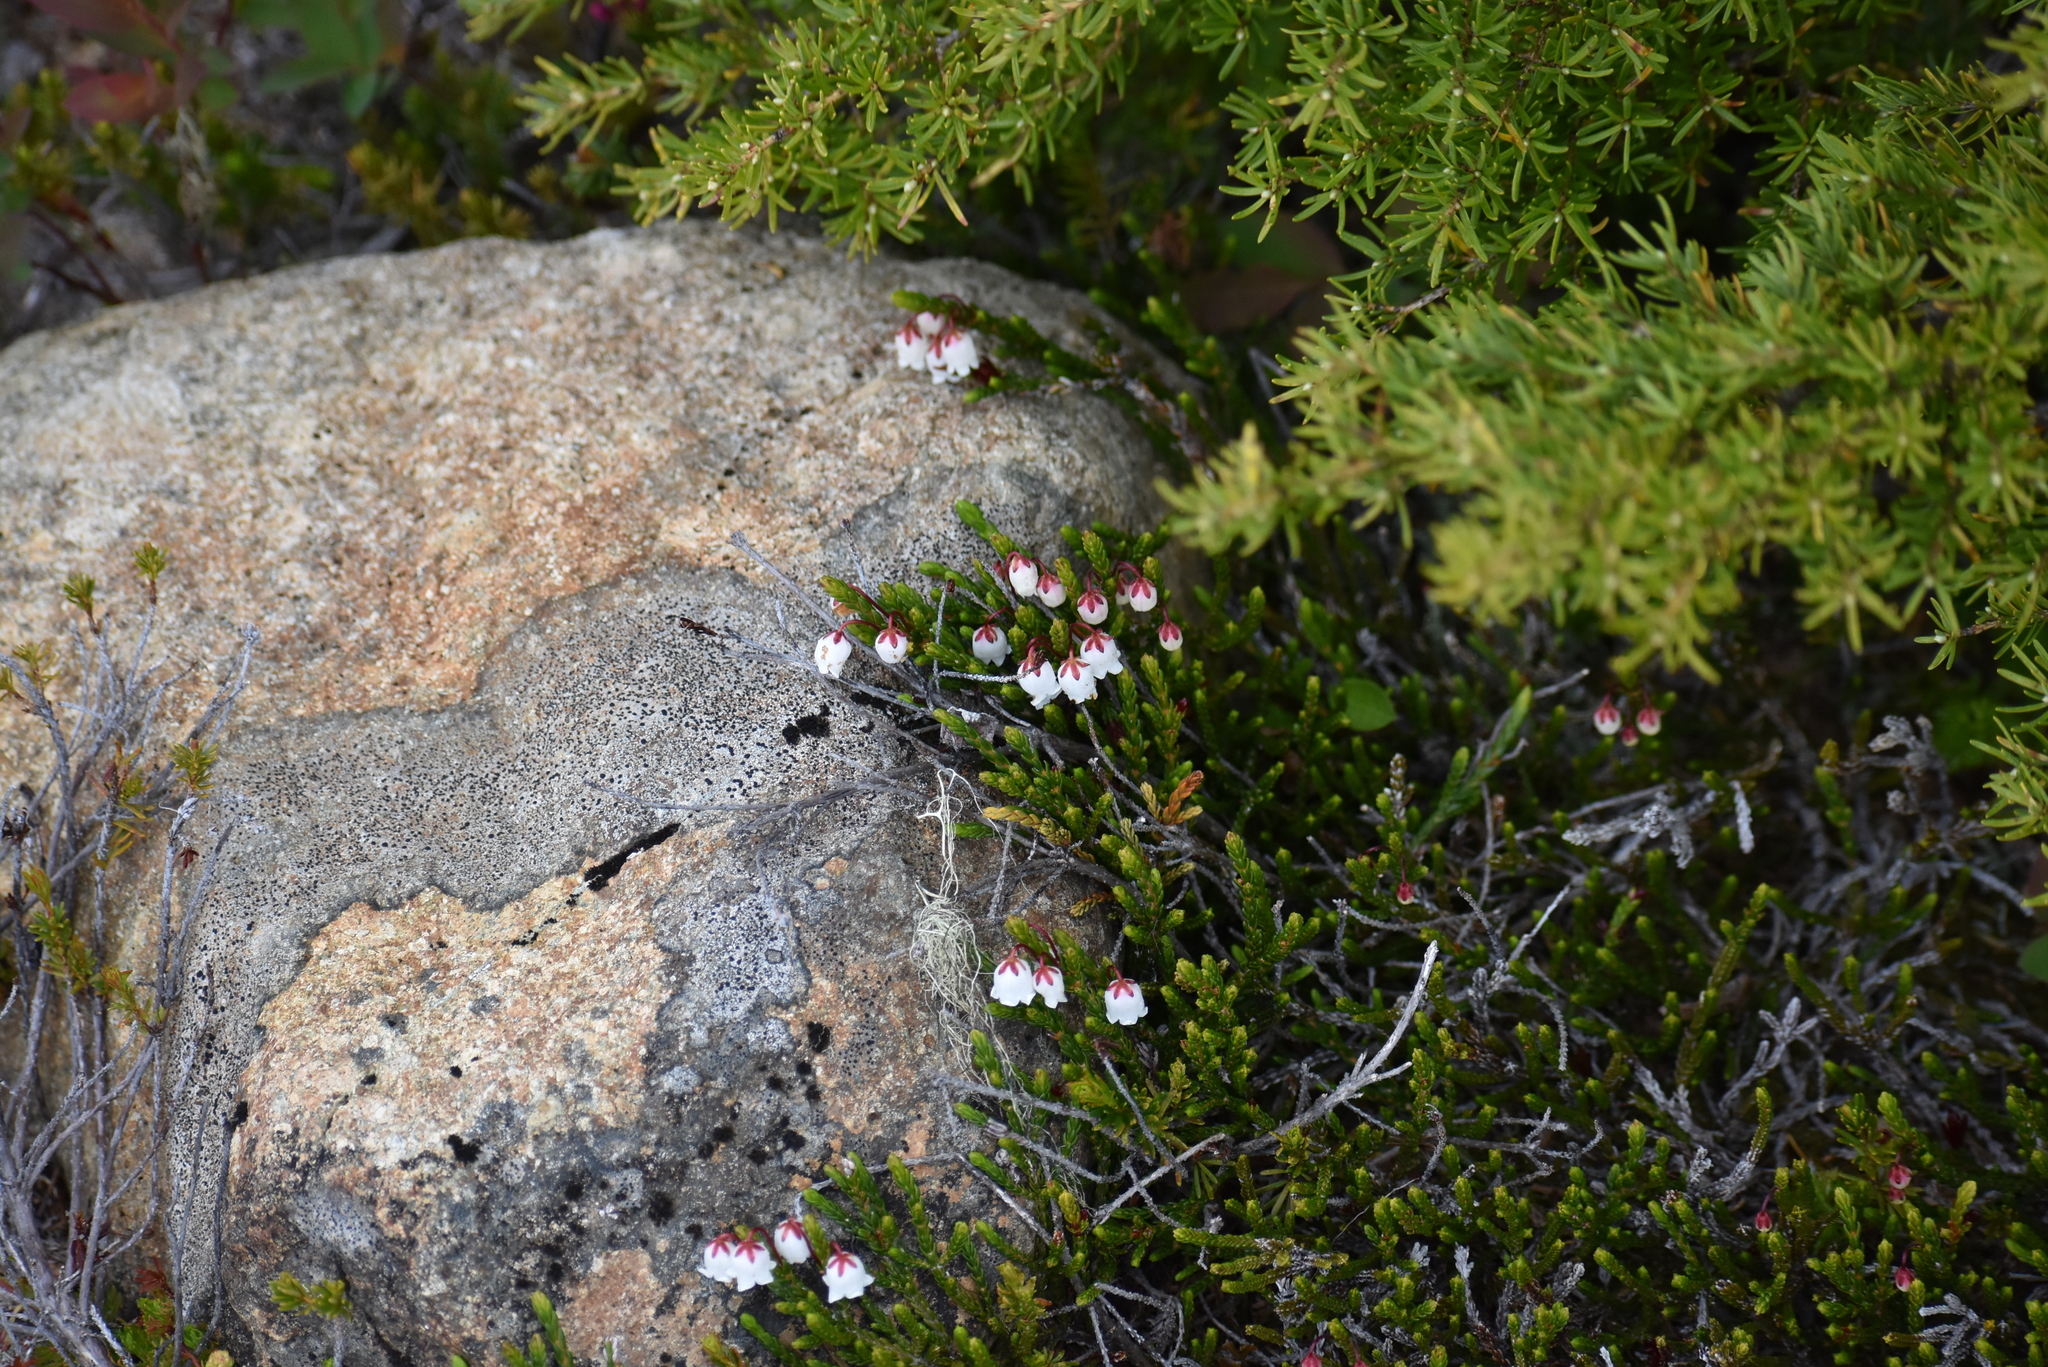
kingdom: Plantae
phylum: Tracheophyta
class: Magnoliopsida
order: Ericales
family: Ericaceae
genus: Cassiope
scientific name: Cassiope mertensiana
